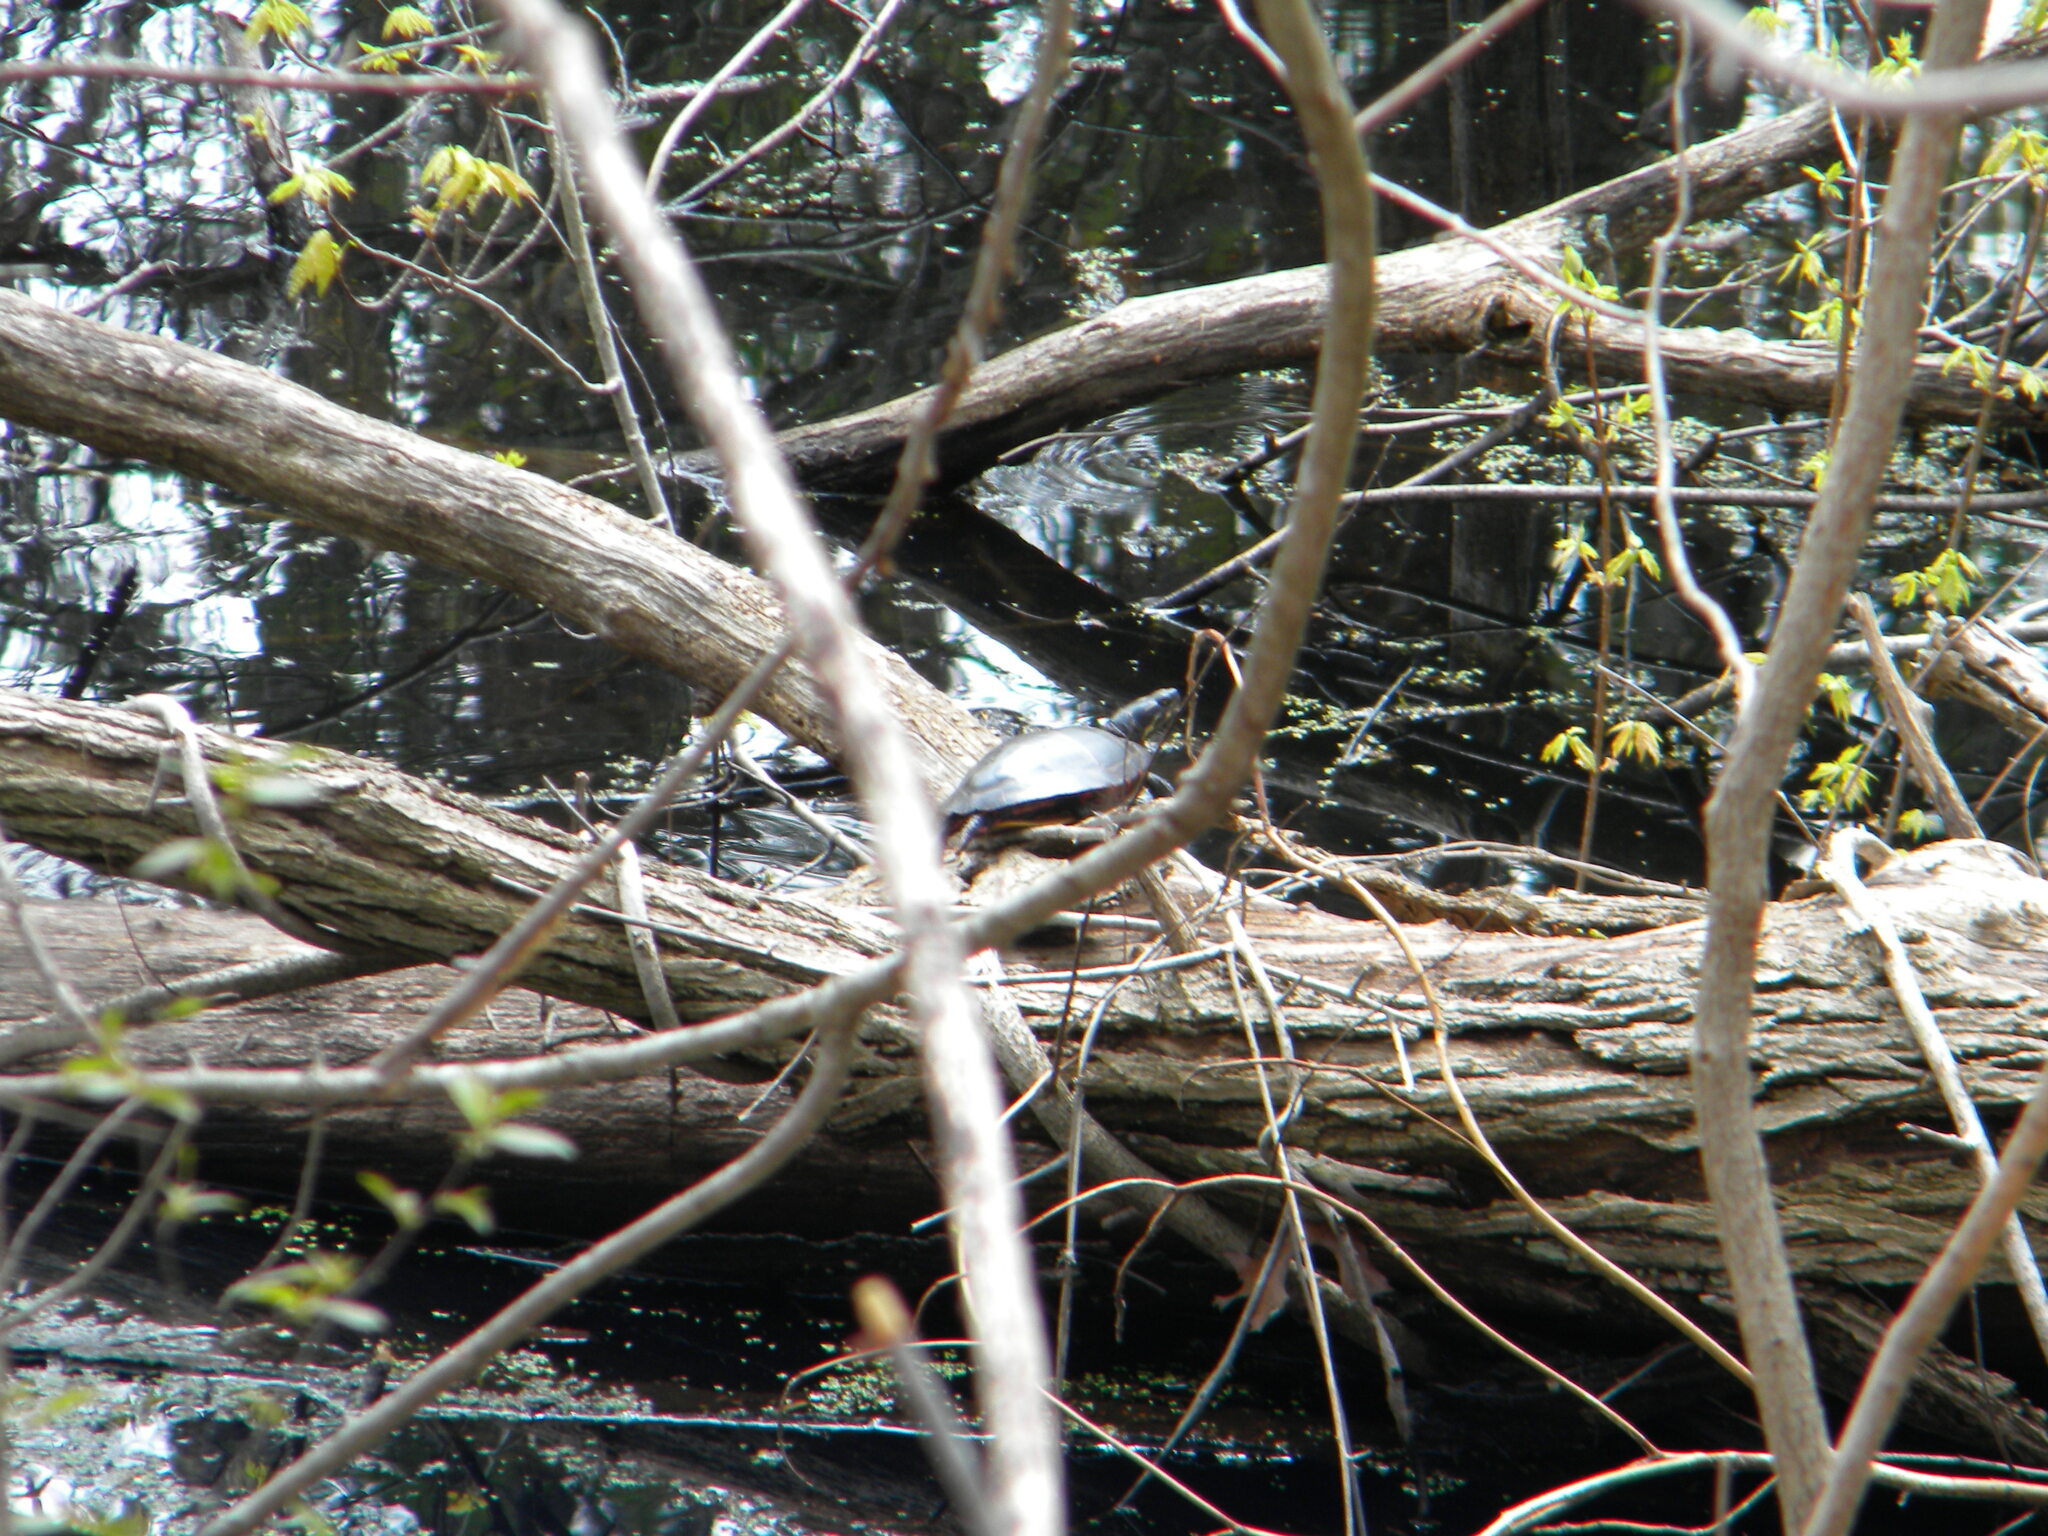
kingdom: Animalia
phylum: Chordata
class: Testudines
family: Emydidae
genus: Chrysemys
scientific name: Chrysemys picta
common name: Painted turtle
